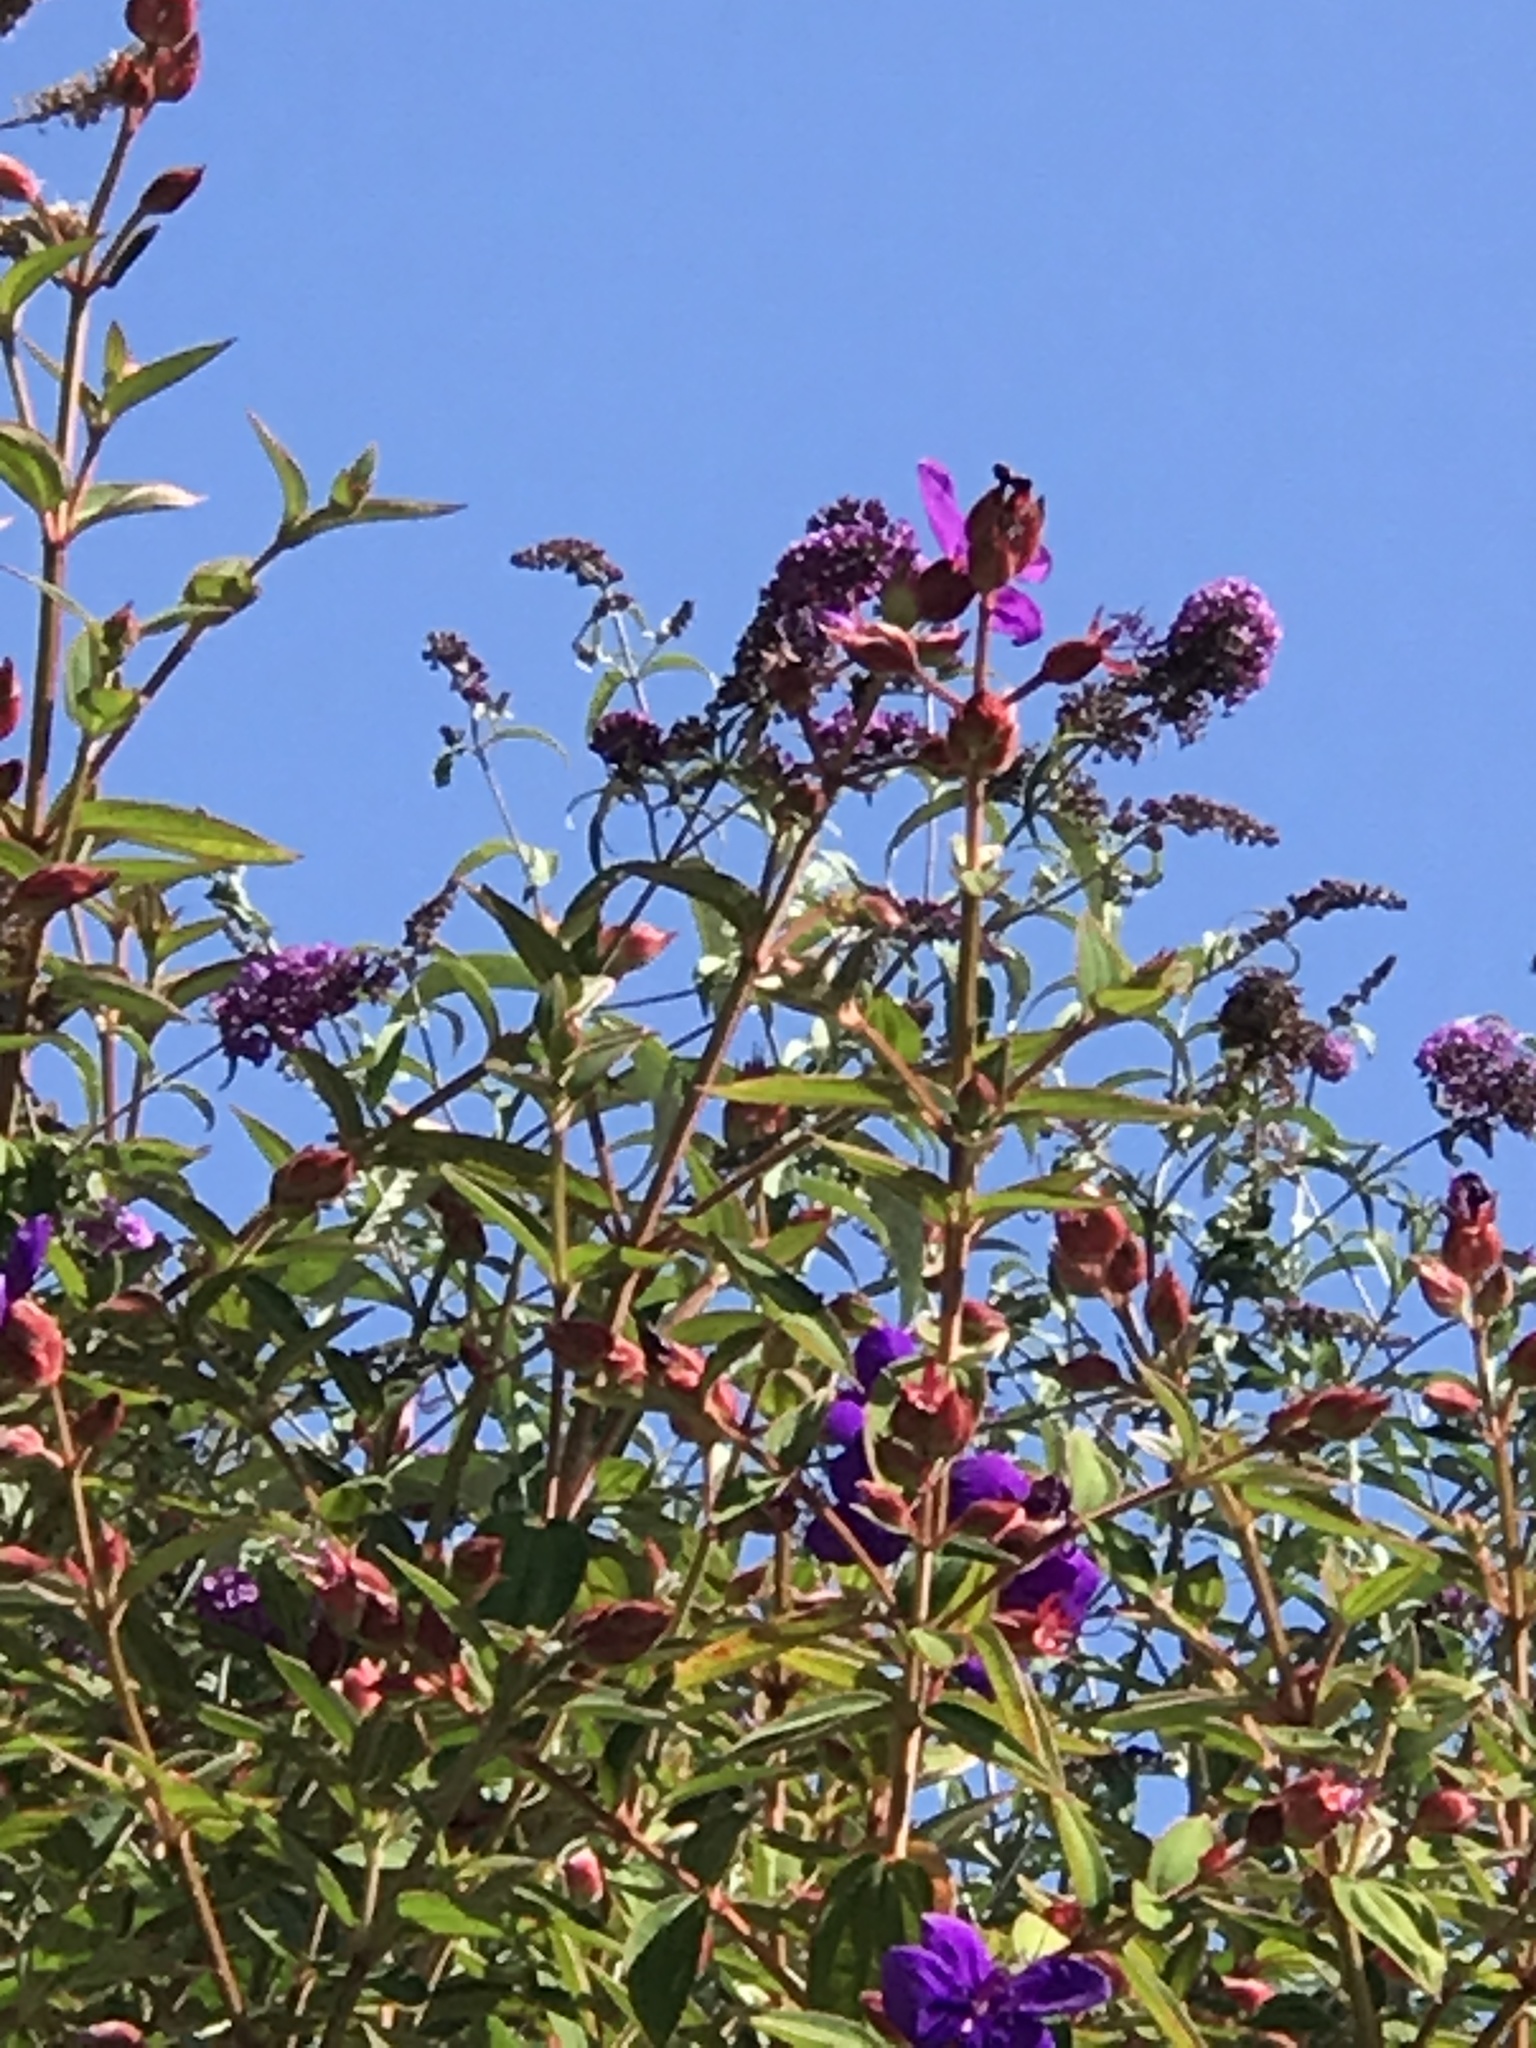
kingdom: Animalia
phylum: Arthropoda
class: Insecta
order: Lepidoptera
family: Papilionidae
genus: Battus
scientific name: Battus philenor
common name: Pipevine swallowtail
